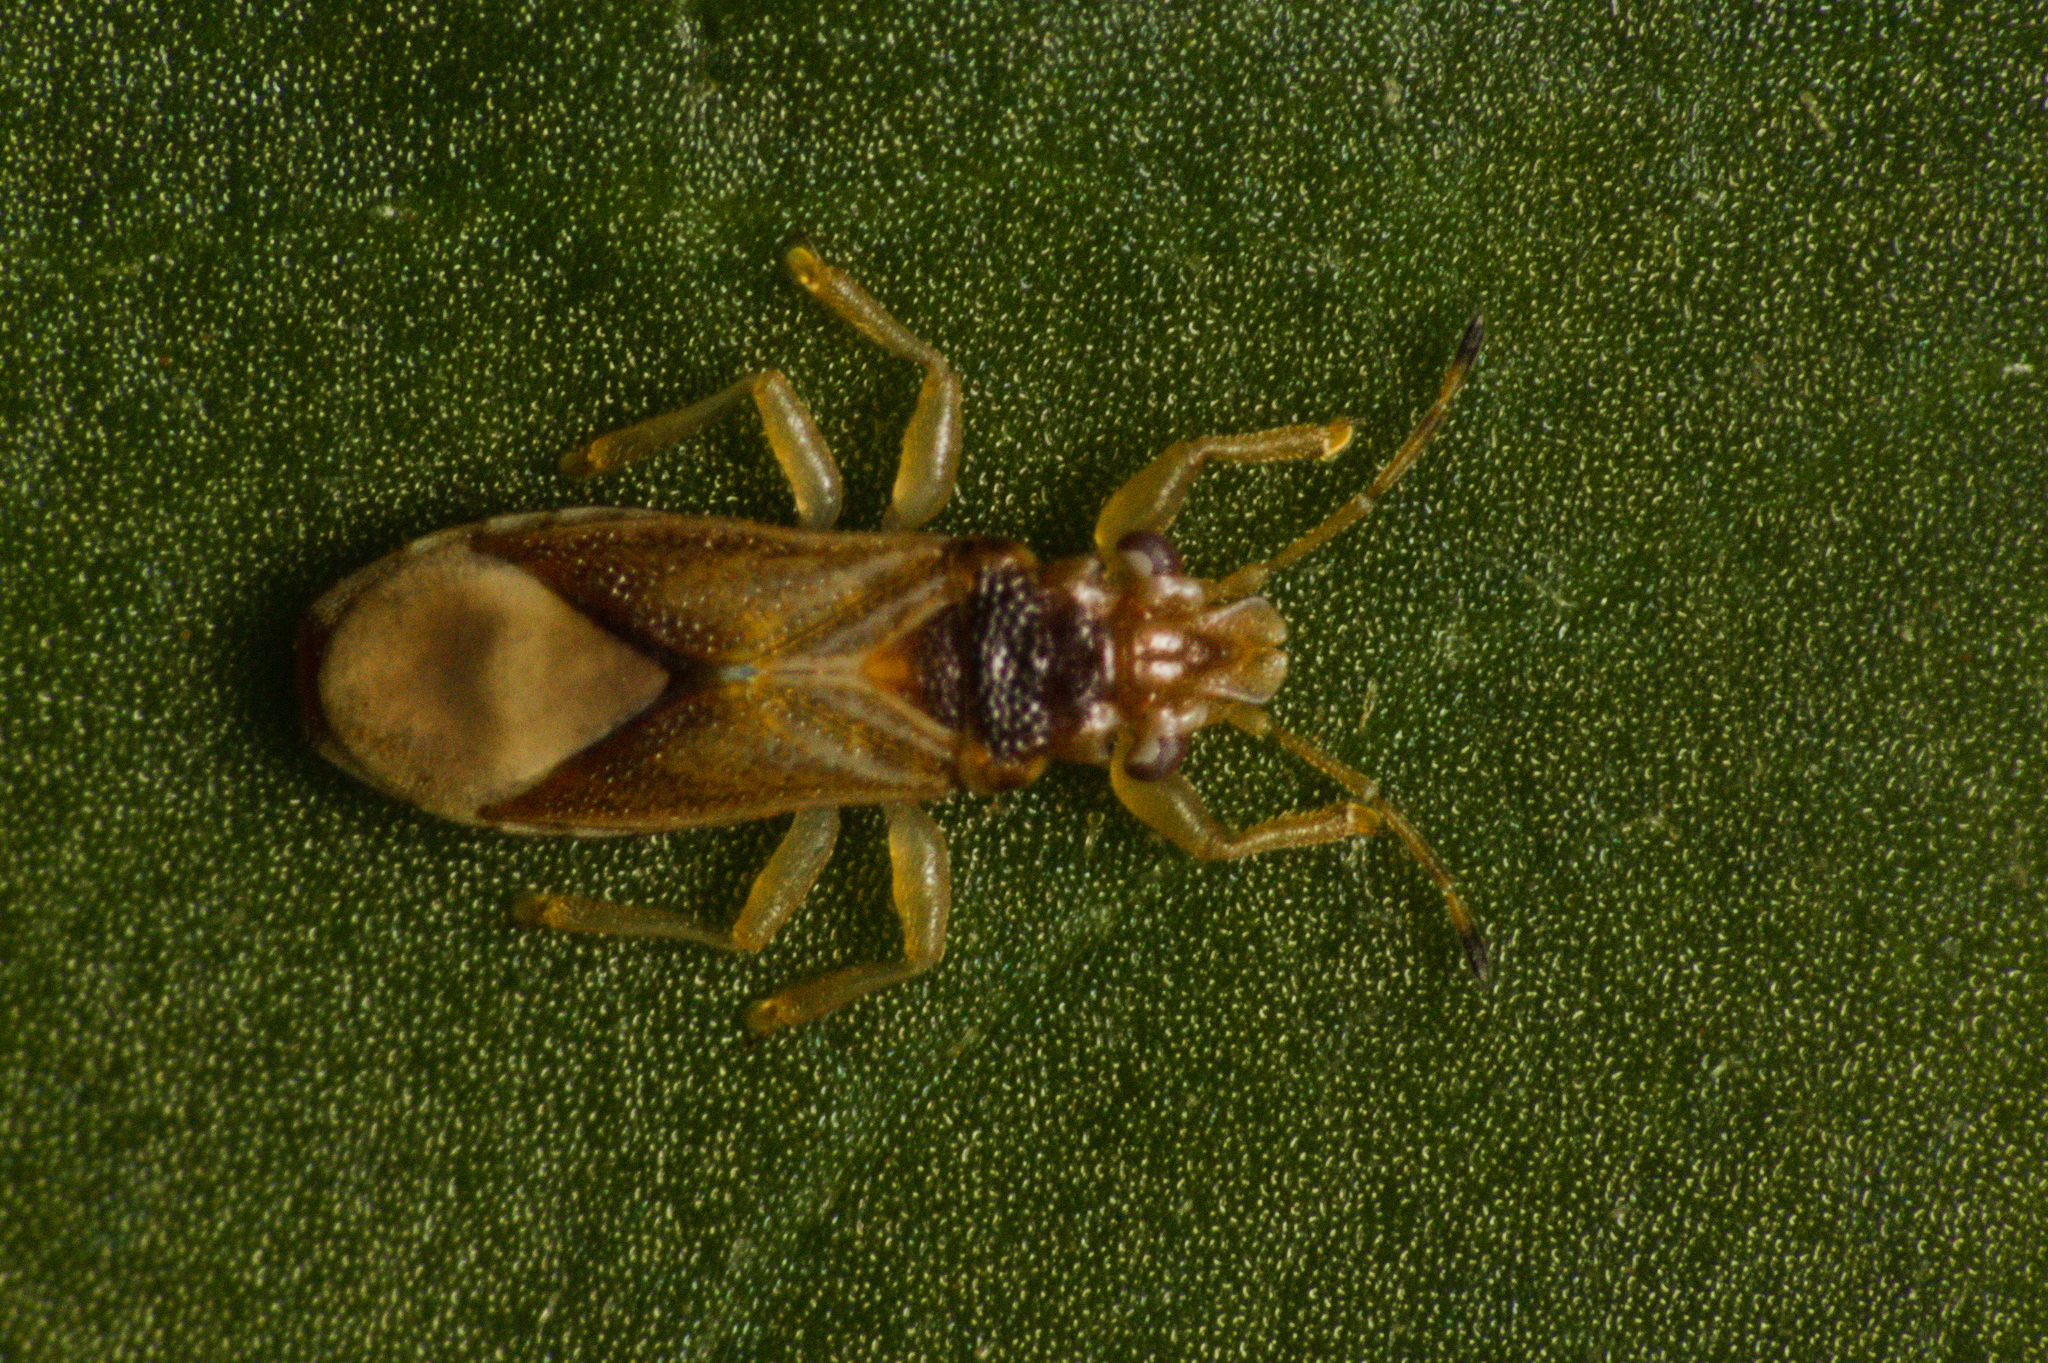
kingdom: Animalia
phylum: Arthropoda
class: Insecta
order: Hemiptera
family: Thaumastocoridae
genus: Thaumastocoris
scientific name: Thaumastocoris peregrinus
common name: Bronze bug
